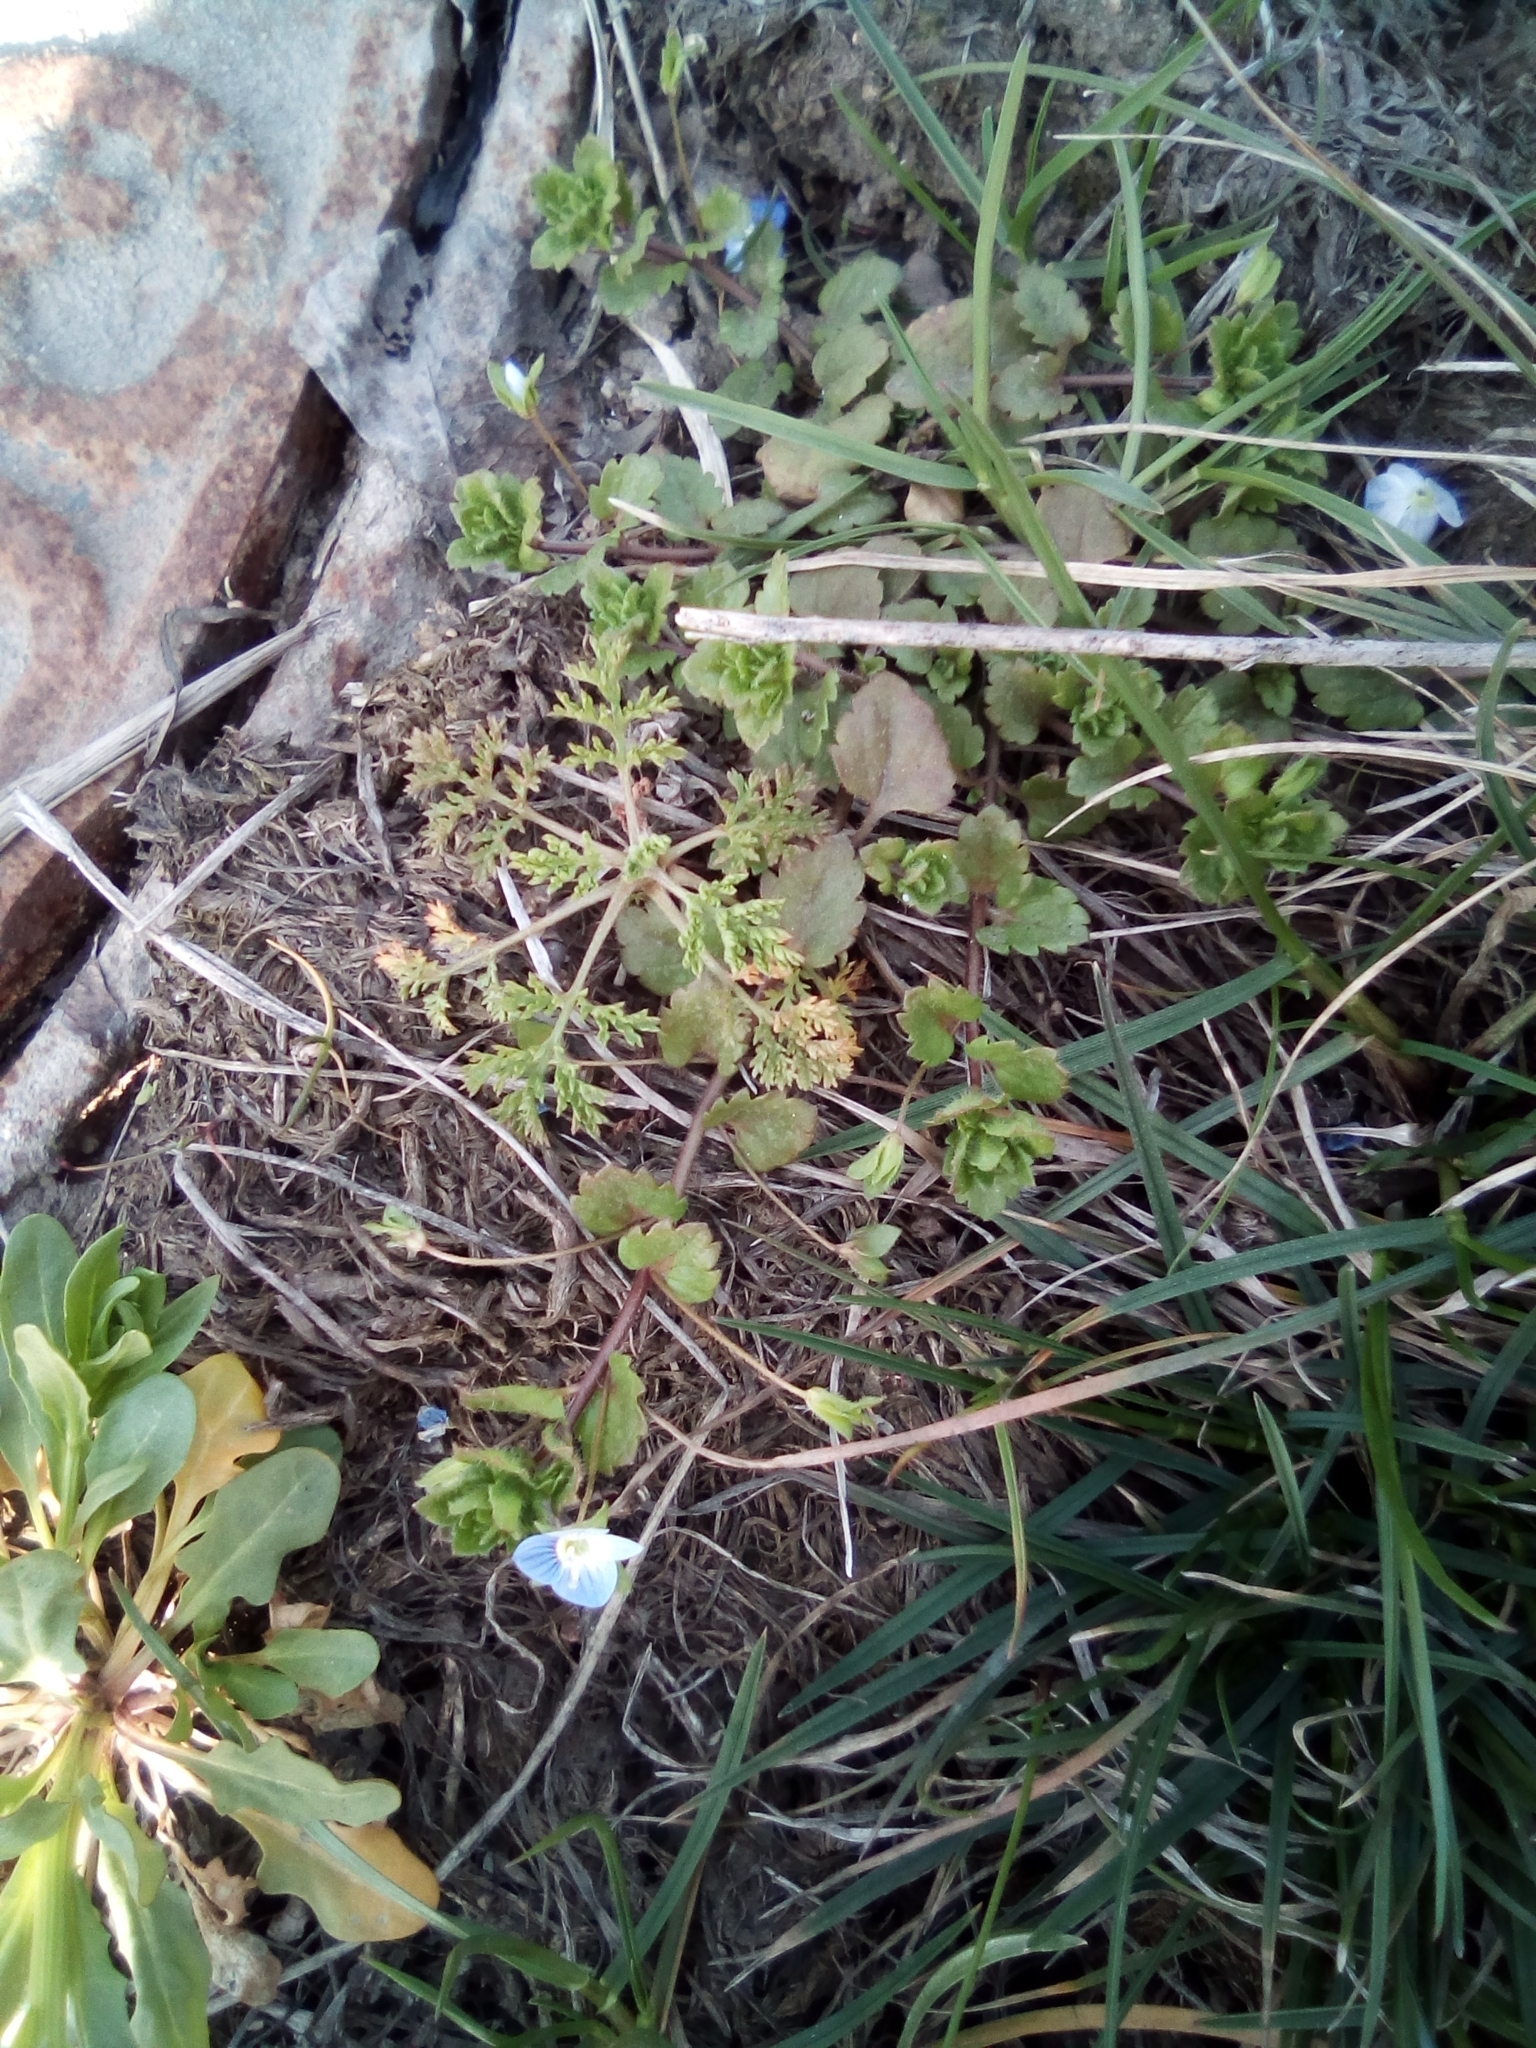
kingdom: Plantae
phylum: Tracheophyta
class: Magnoliopsida
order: Lamiales
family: Plantaginaceae
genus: Veronica
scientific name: Veronica persica
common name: Common field-speedwell
